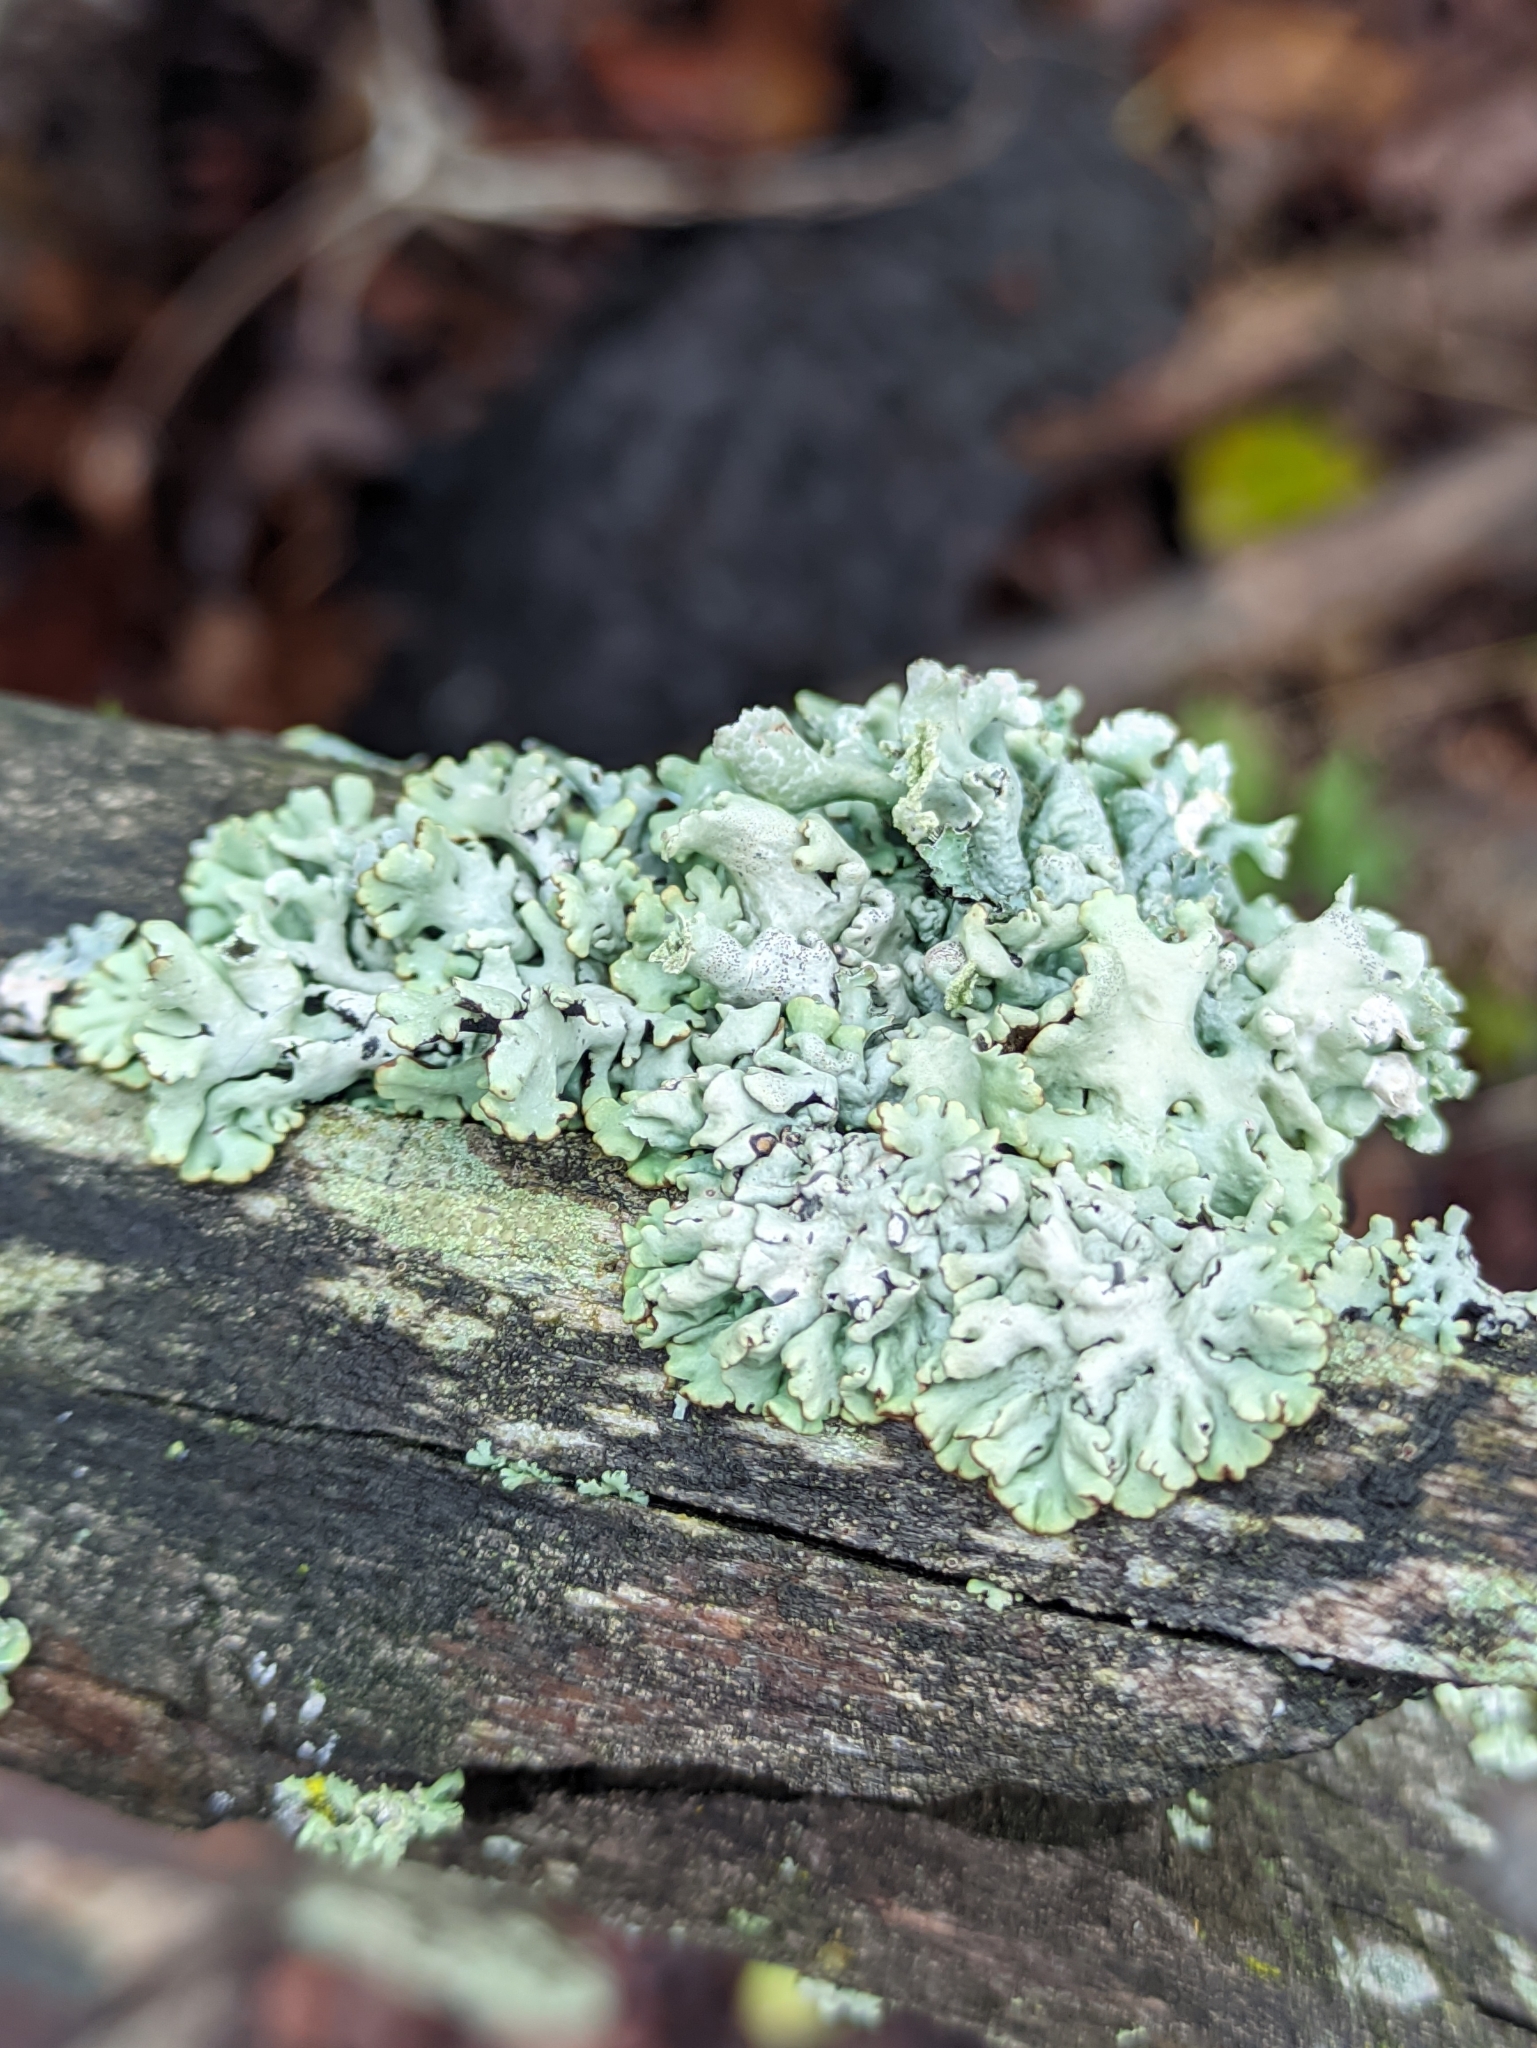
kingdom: Fungi
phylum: Ascomycota
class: Lecanoromycetes
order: Lecanorales
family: Parmeliaceae
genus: Hypogymnia
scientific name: Hypogymnia physodes
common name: Dark crottle
